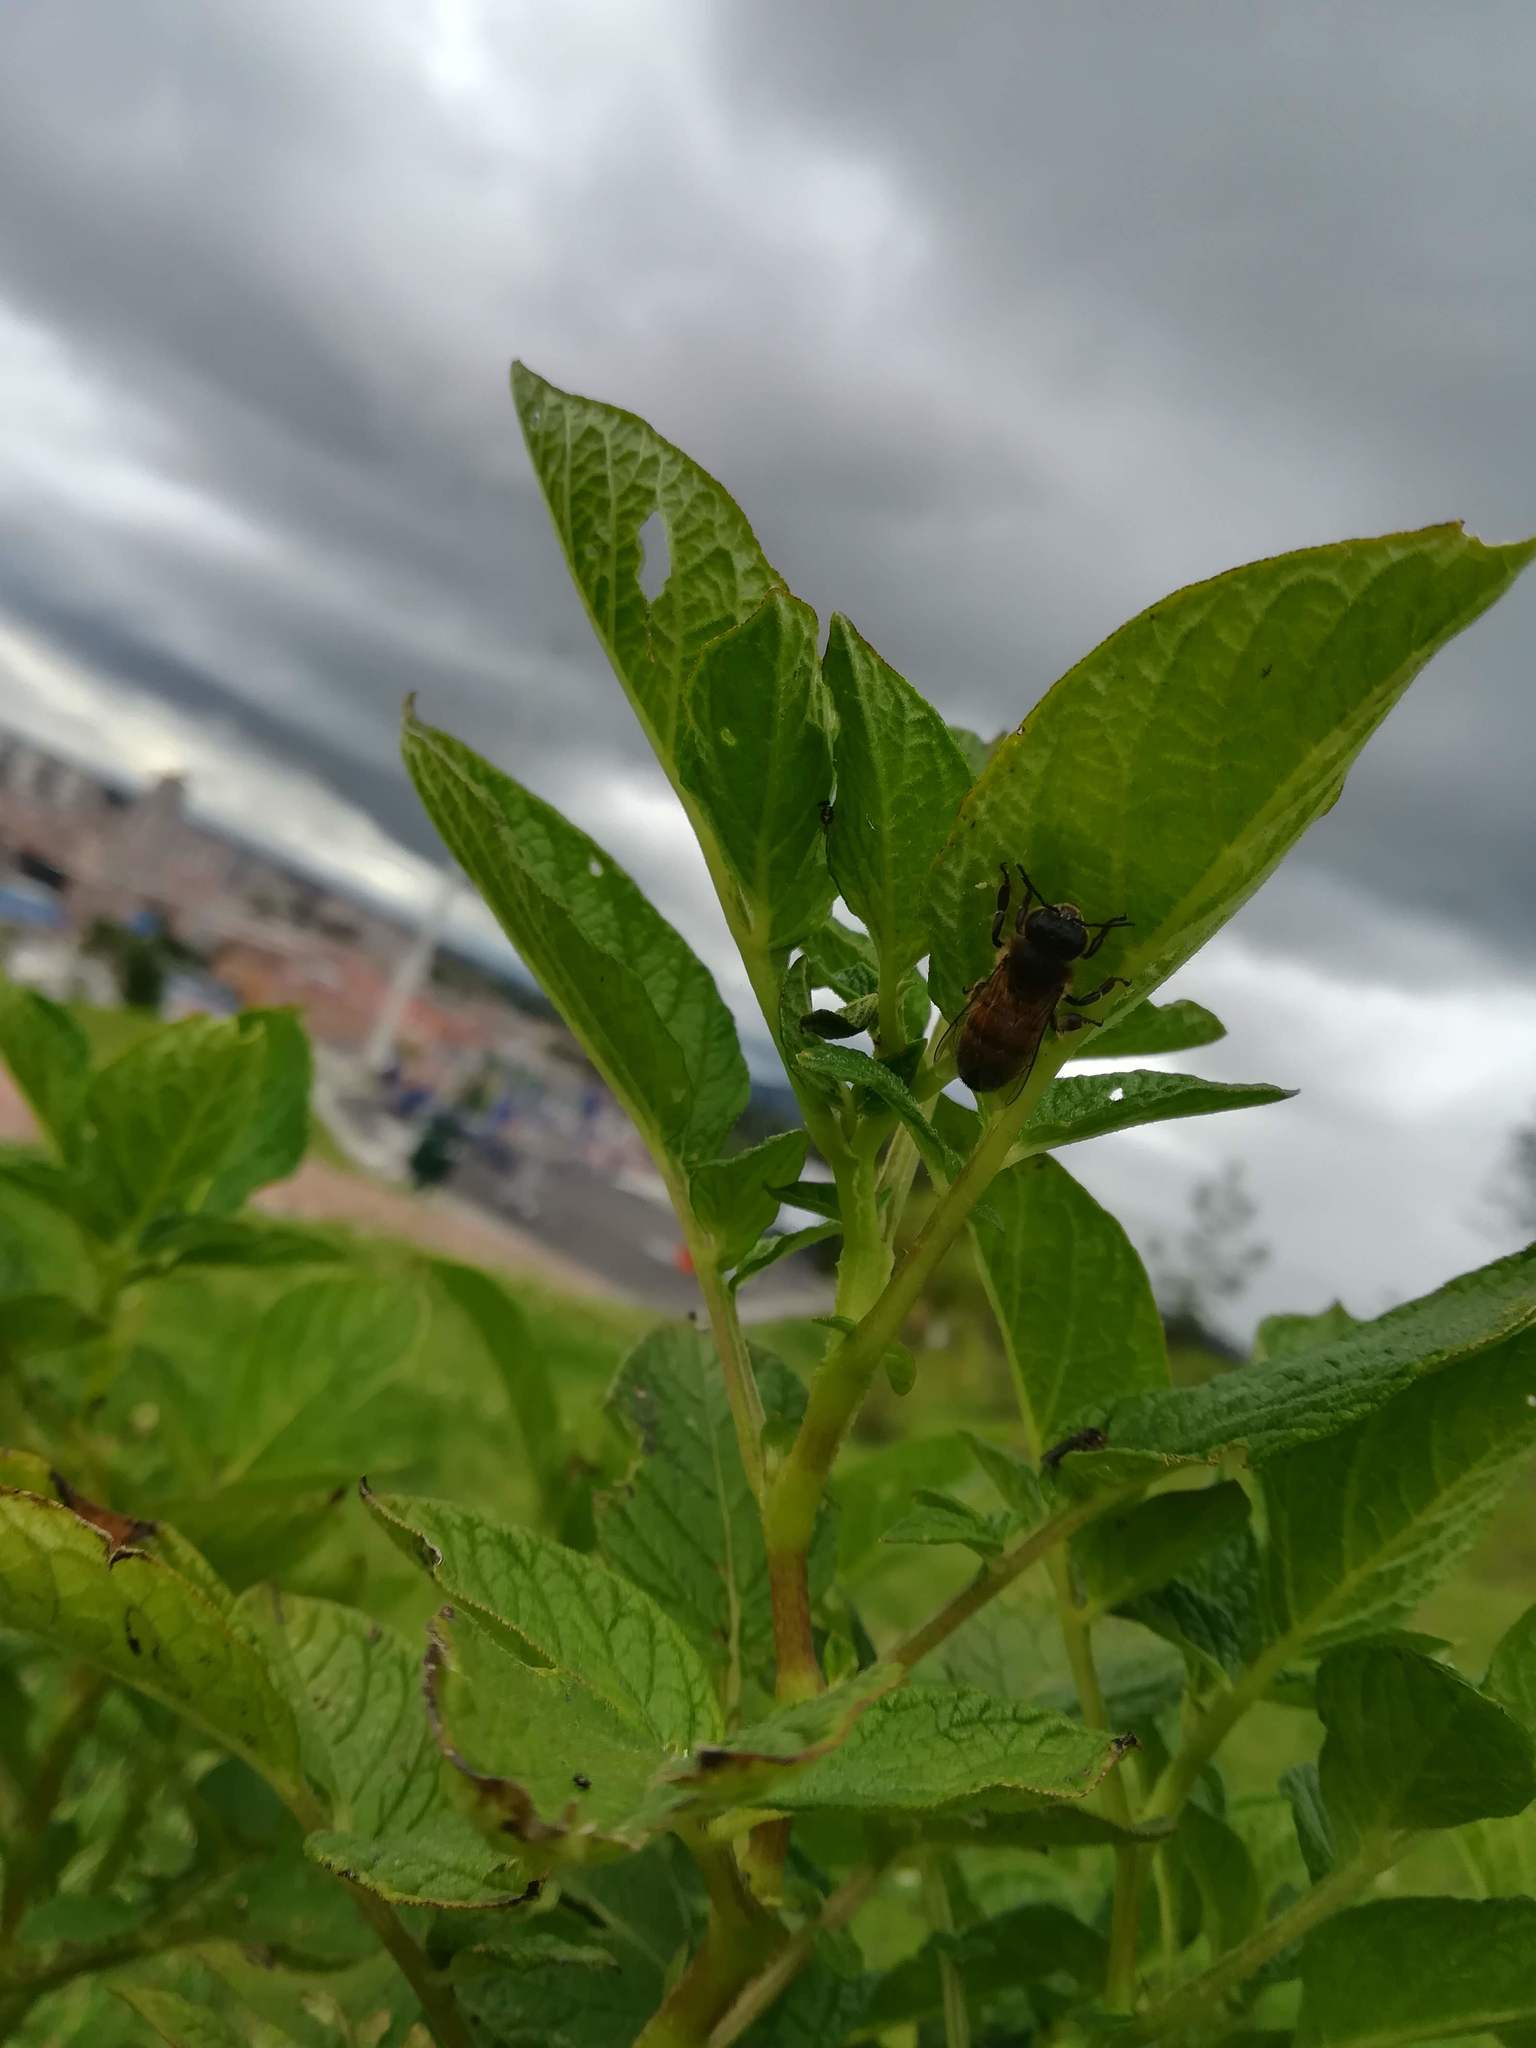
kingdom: Animalia
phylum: Arthropoda
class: Insecta
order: Hymenoptera
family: Apidae
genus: Apis
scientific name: Apis mellifera
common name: Honey bee
